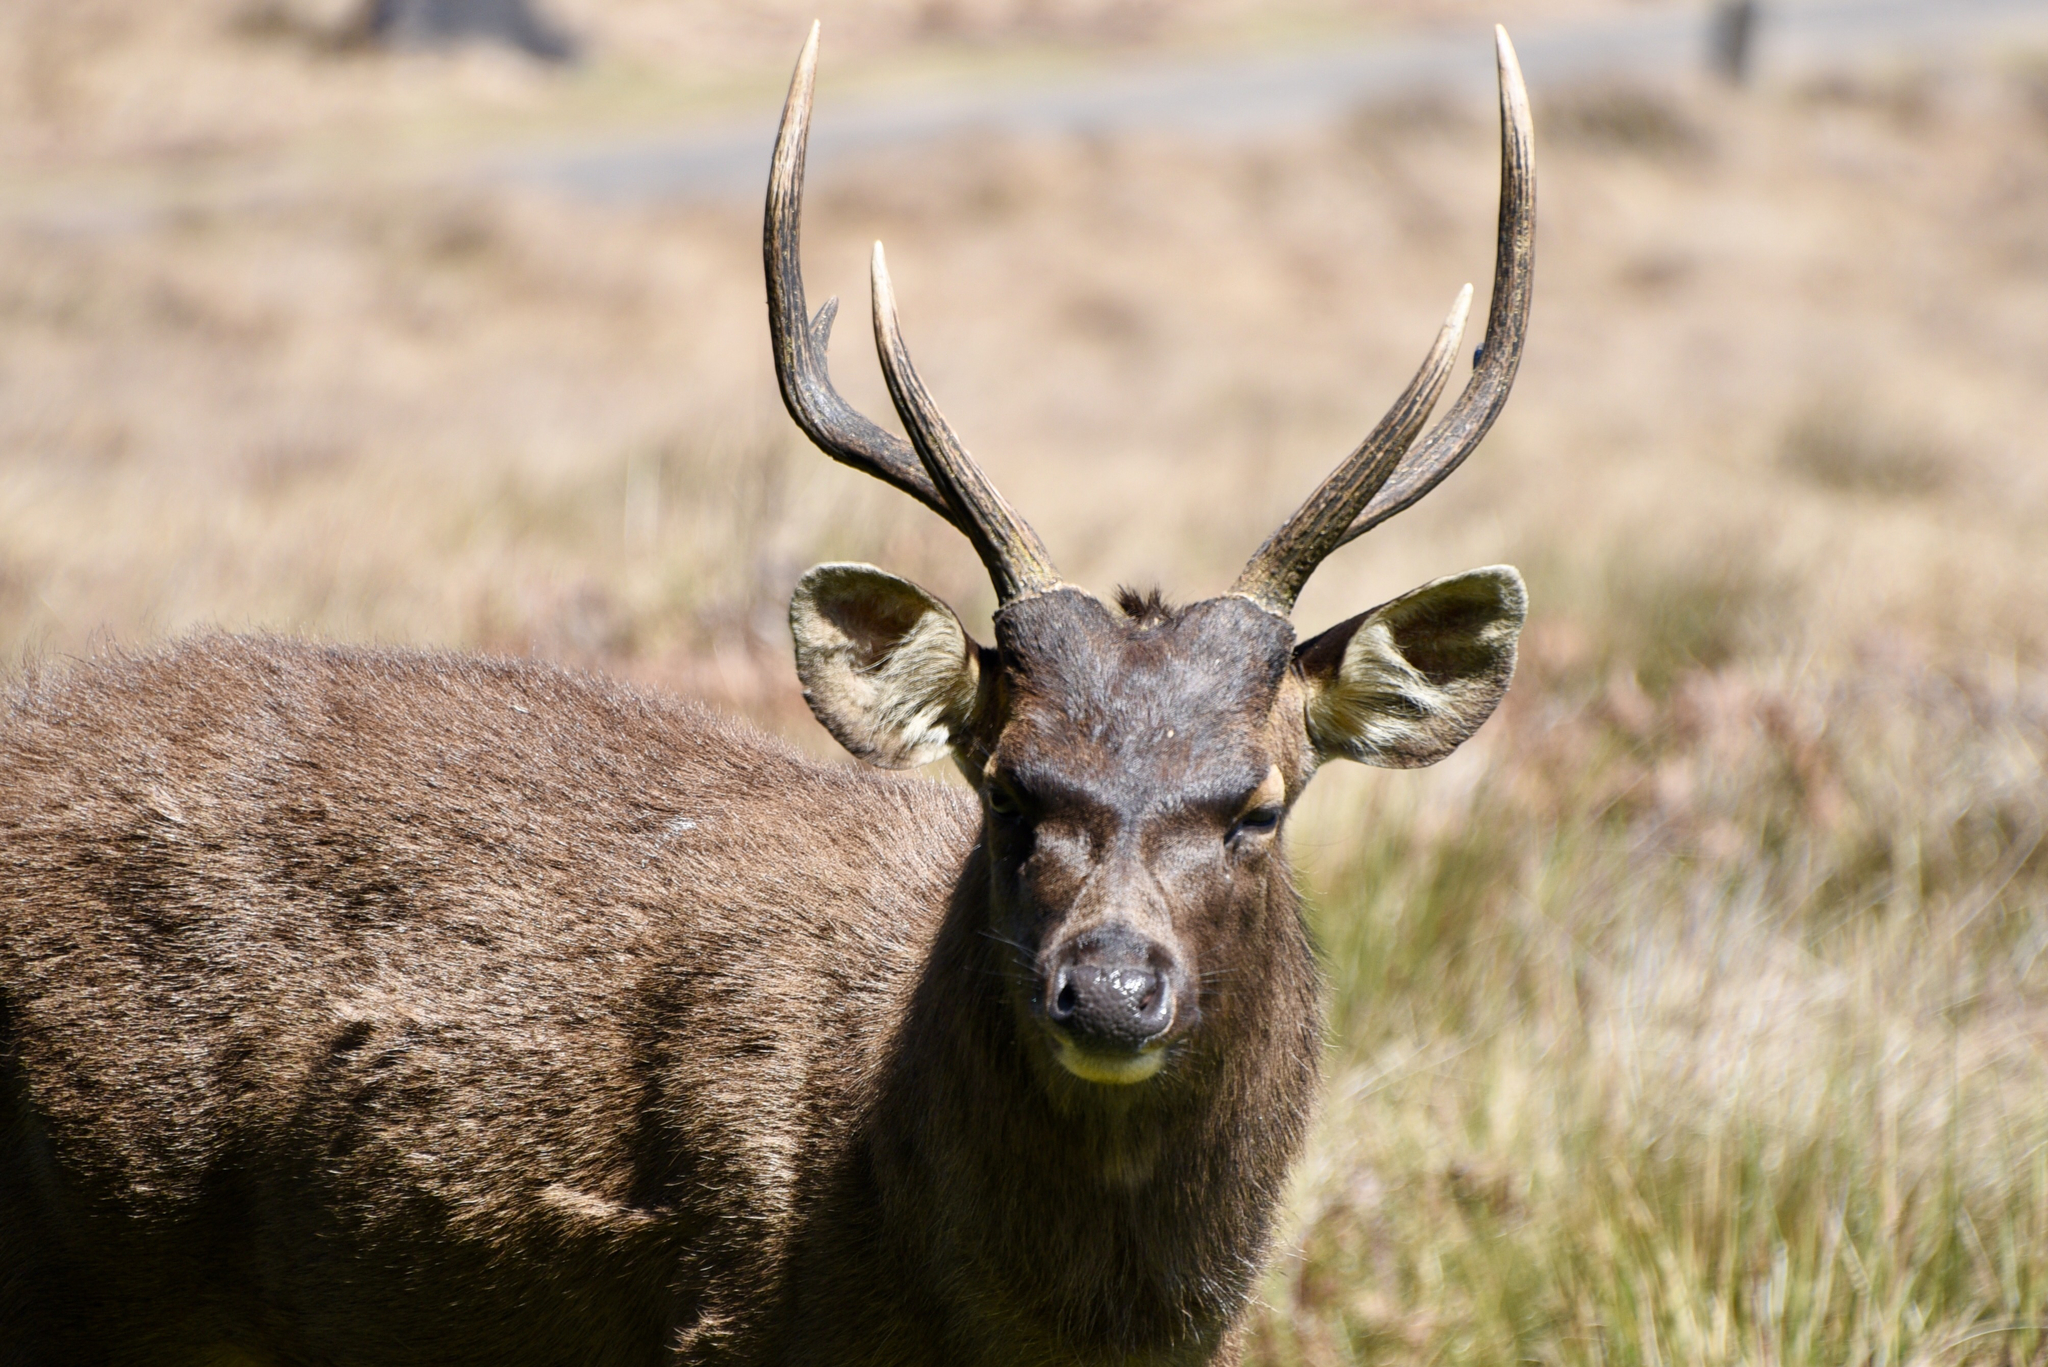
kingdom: Animalia
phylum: Chordata
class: Mammalia
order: Artiodactyla
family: Cervidae
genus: Rusa
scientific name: Rusa unicolor
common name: Sambar
